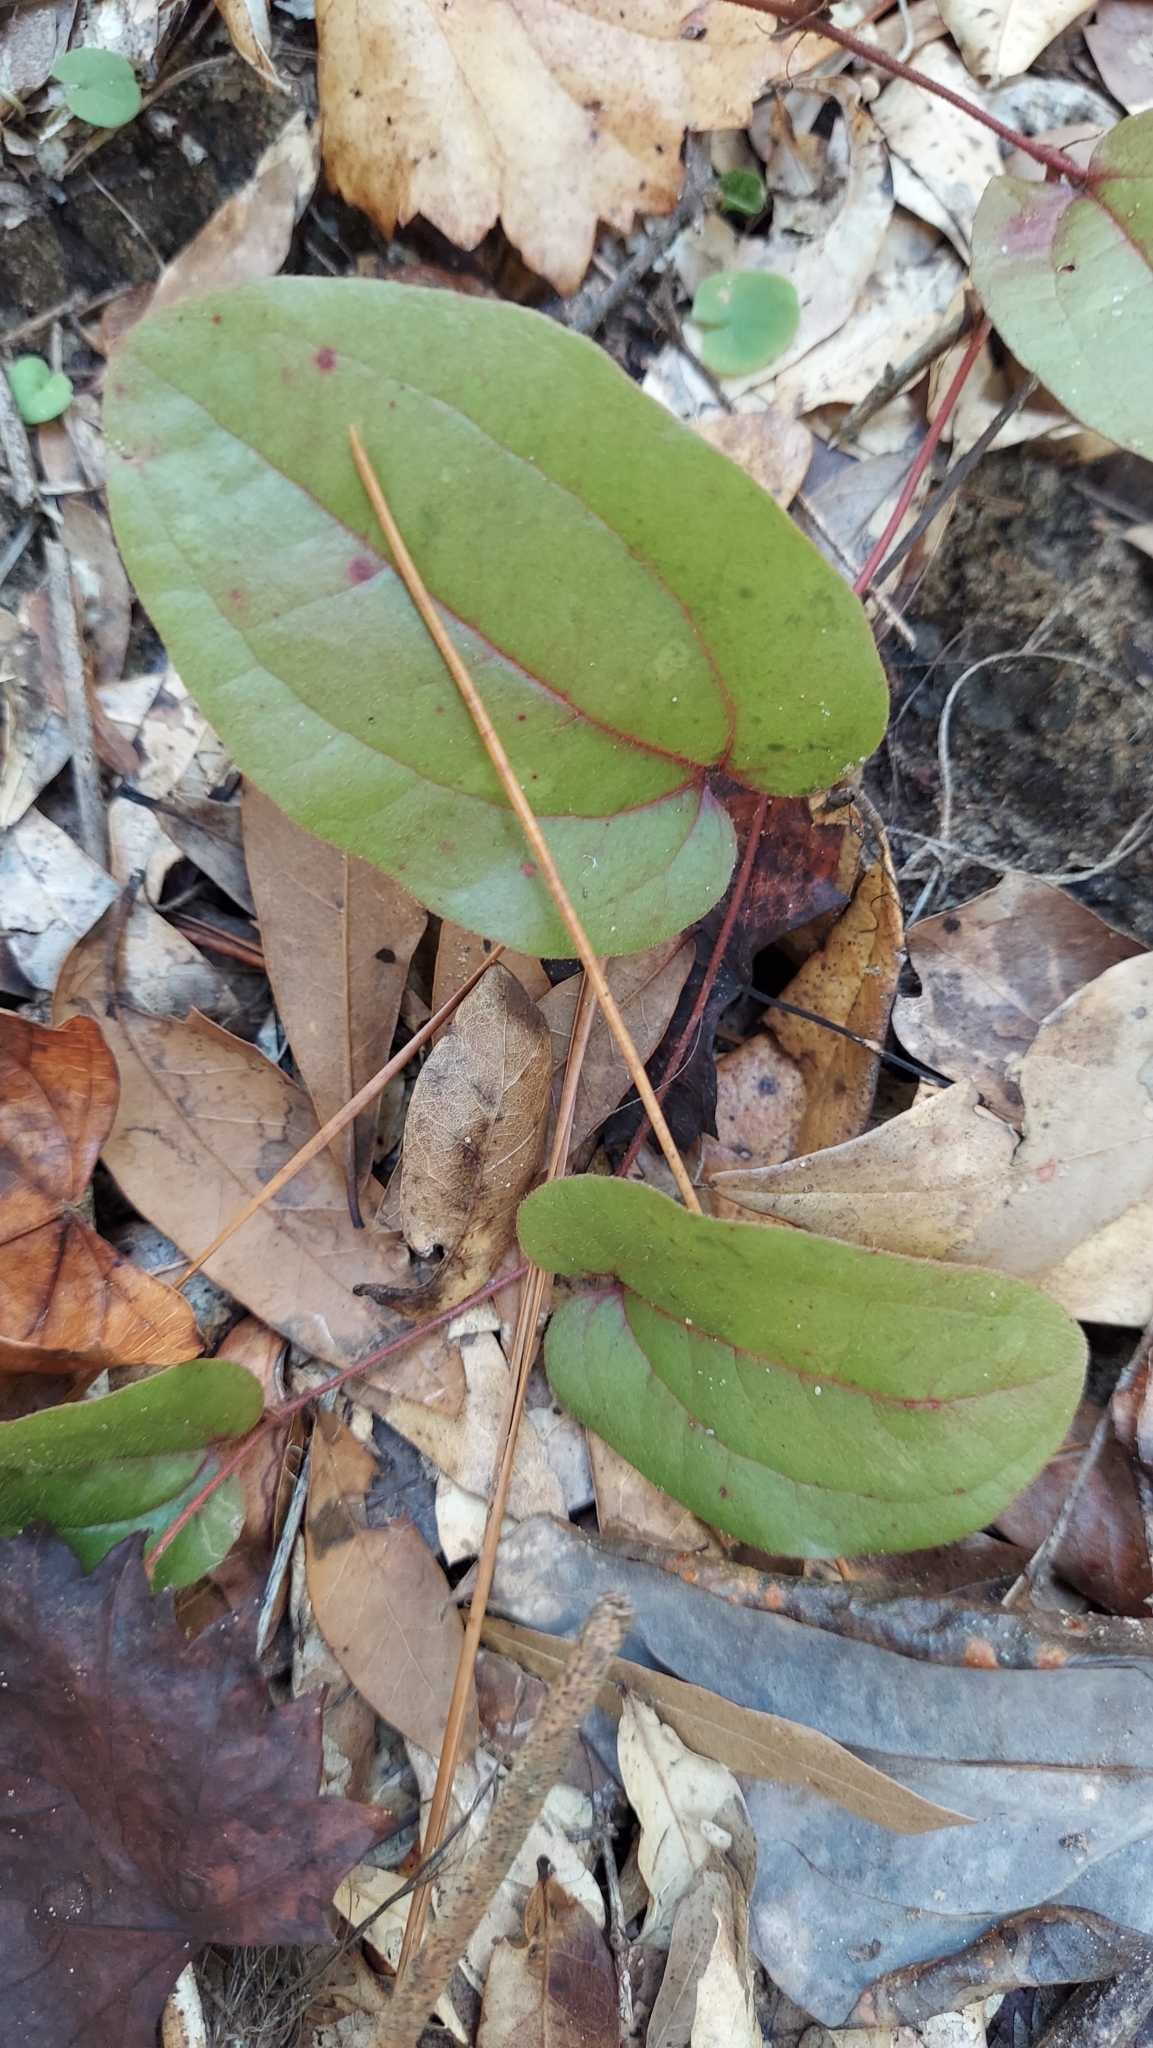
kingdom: Plantae
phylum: Tracheophyta
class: Liliopsida
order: Liliales
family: Smilacaceae
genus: Smilax
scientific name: Smilax pumila
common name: Sarsaparilla-vine
